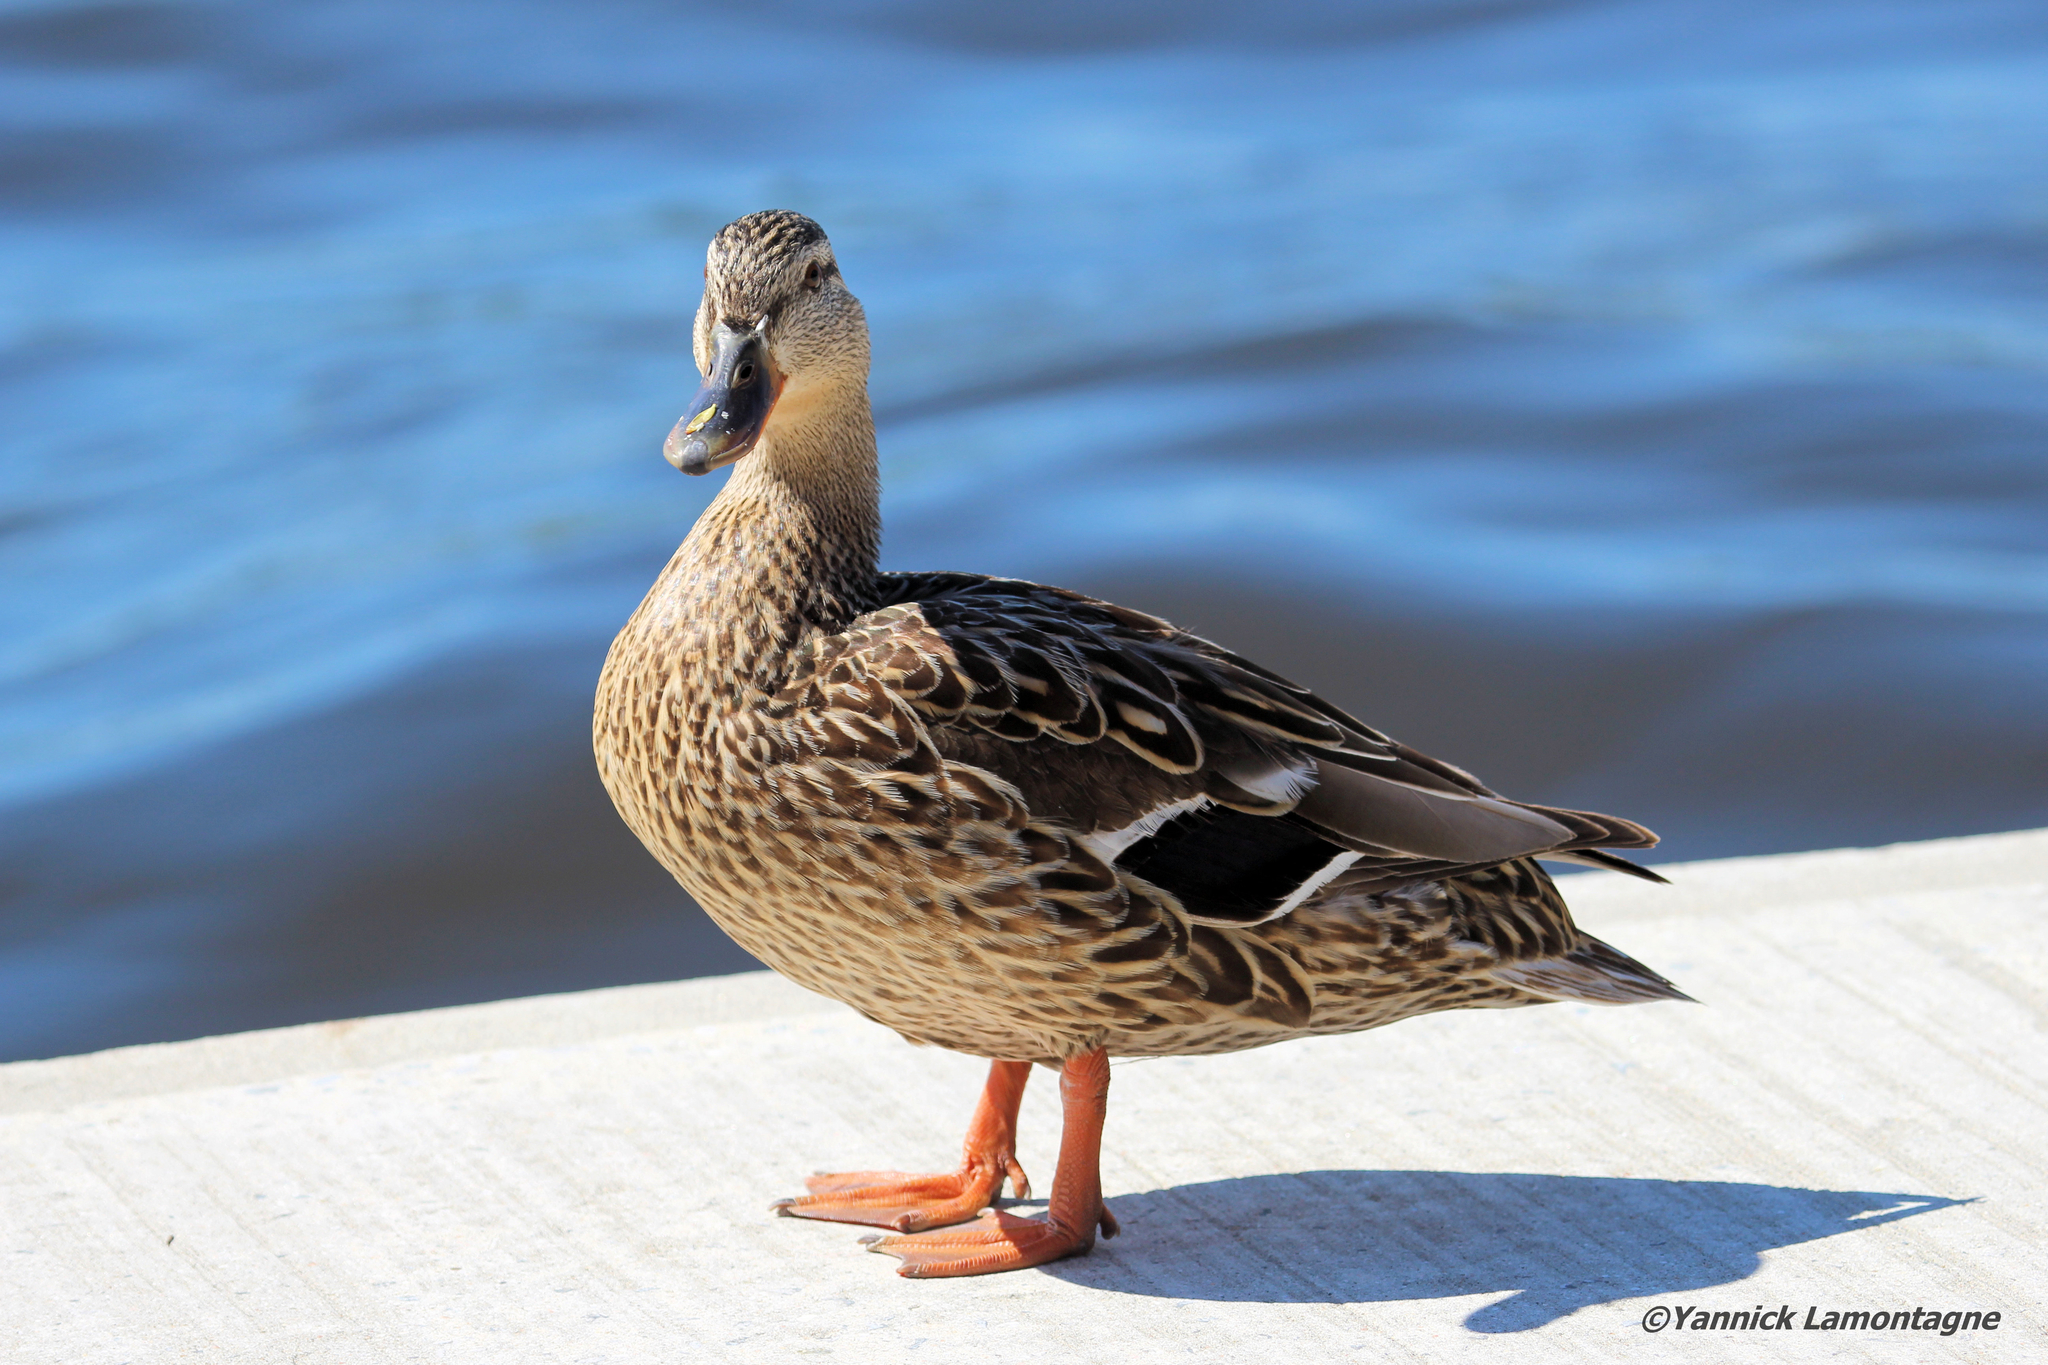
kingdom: Animalia
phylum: Chordata
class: Aves
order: Anseriformes
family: Anatidae
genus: Anas
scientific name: Anas platyrhynchos
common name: Mallard
